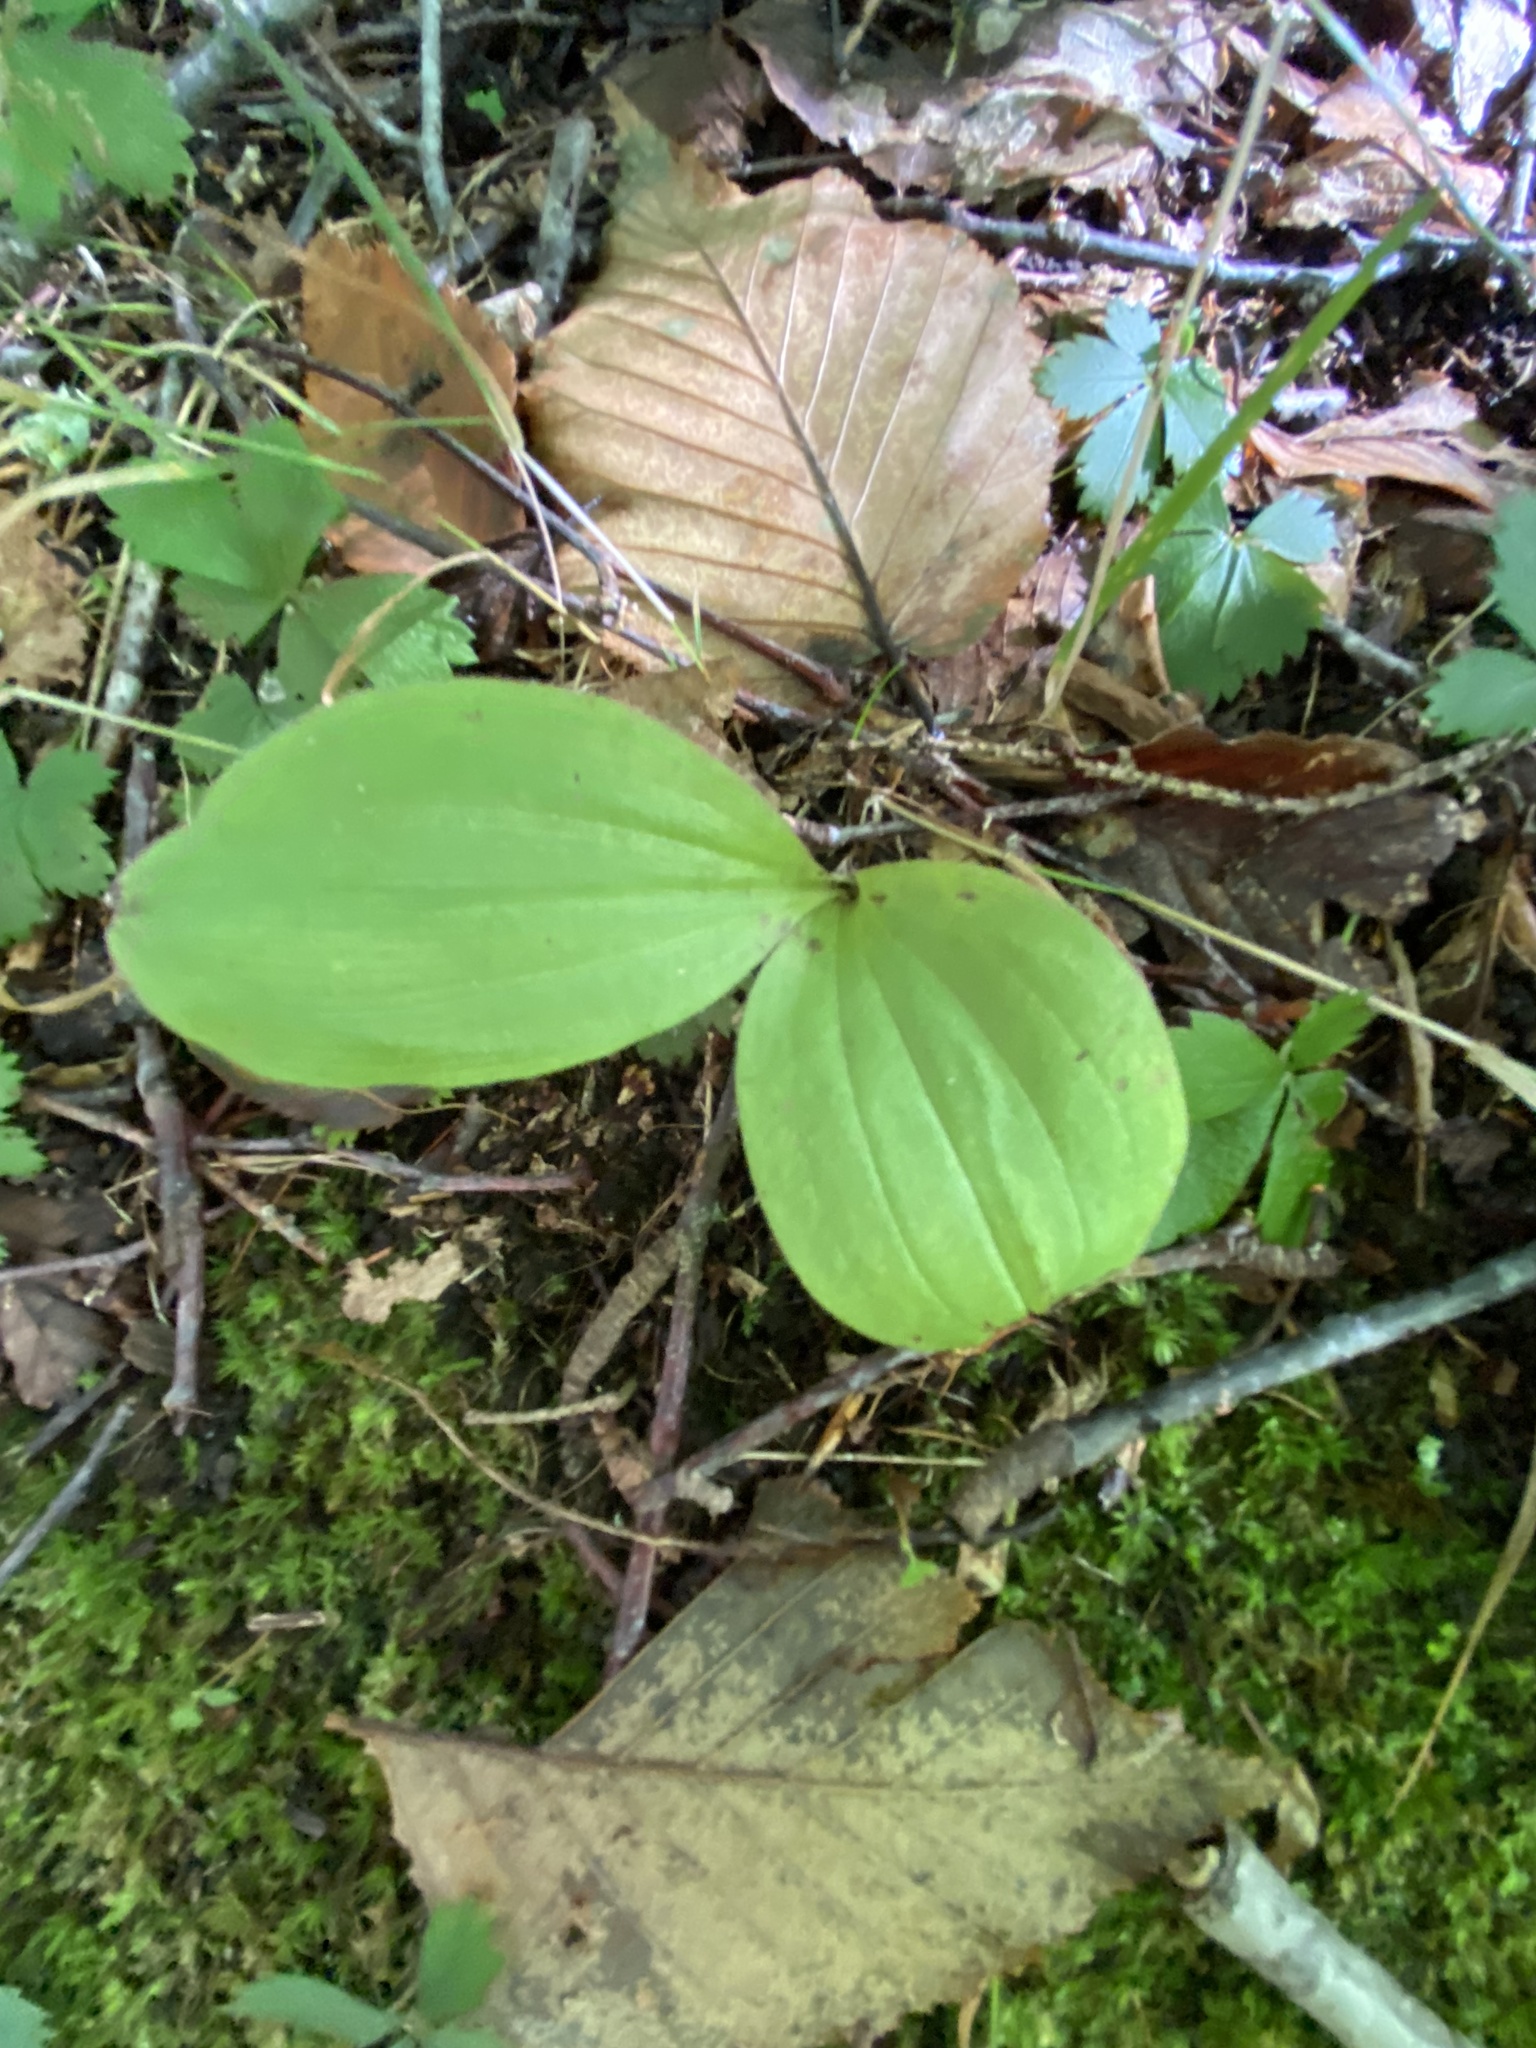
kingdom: Plantae
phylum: Tracheophyta
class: Liliopsida
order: Asparagales
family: Orchidaceae
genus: Cypripedium
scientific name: Cypripedium acaule
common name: Pink lady's-slipper
